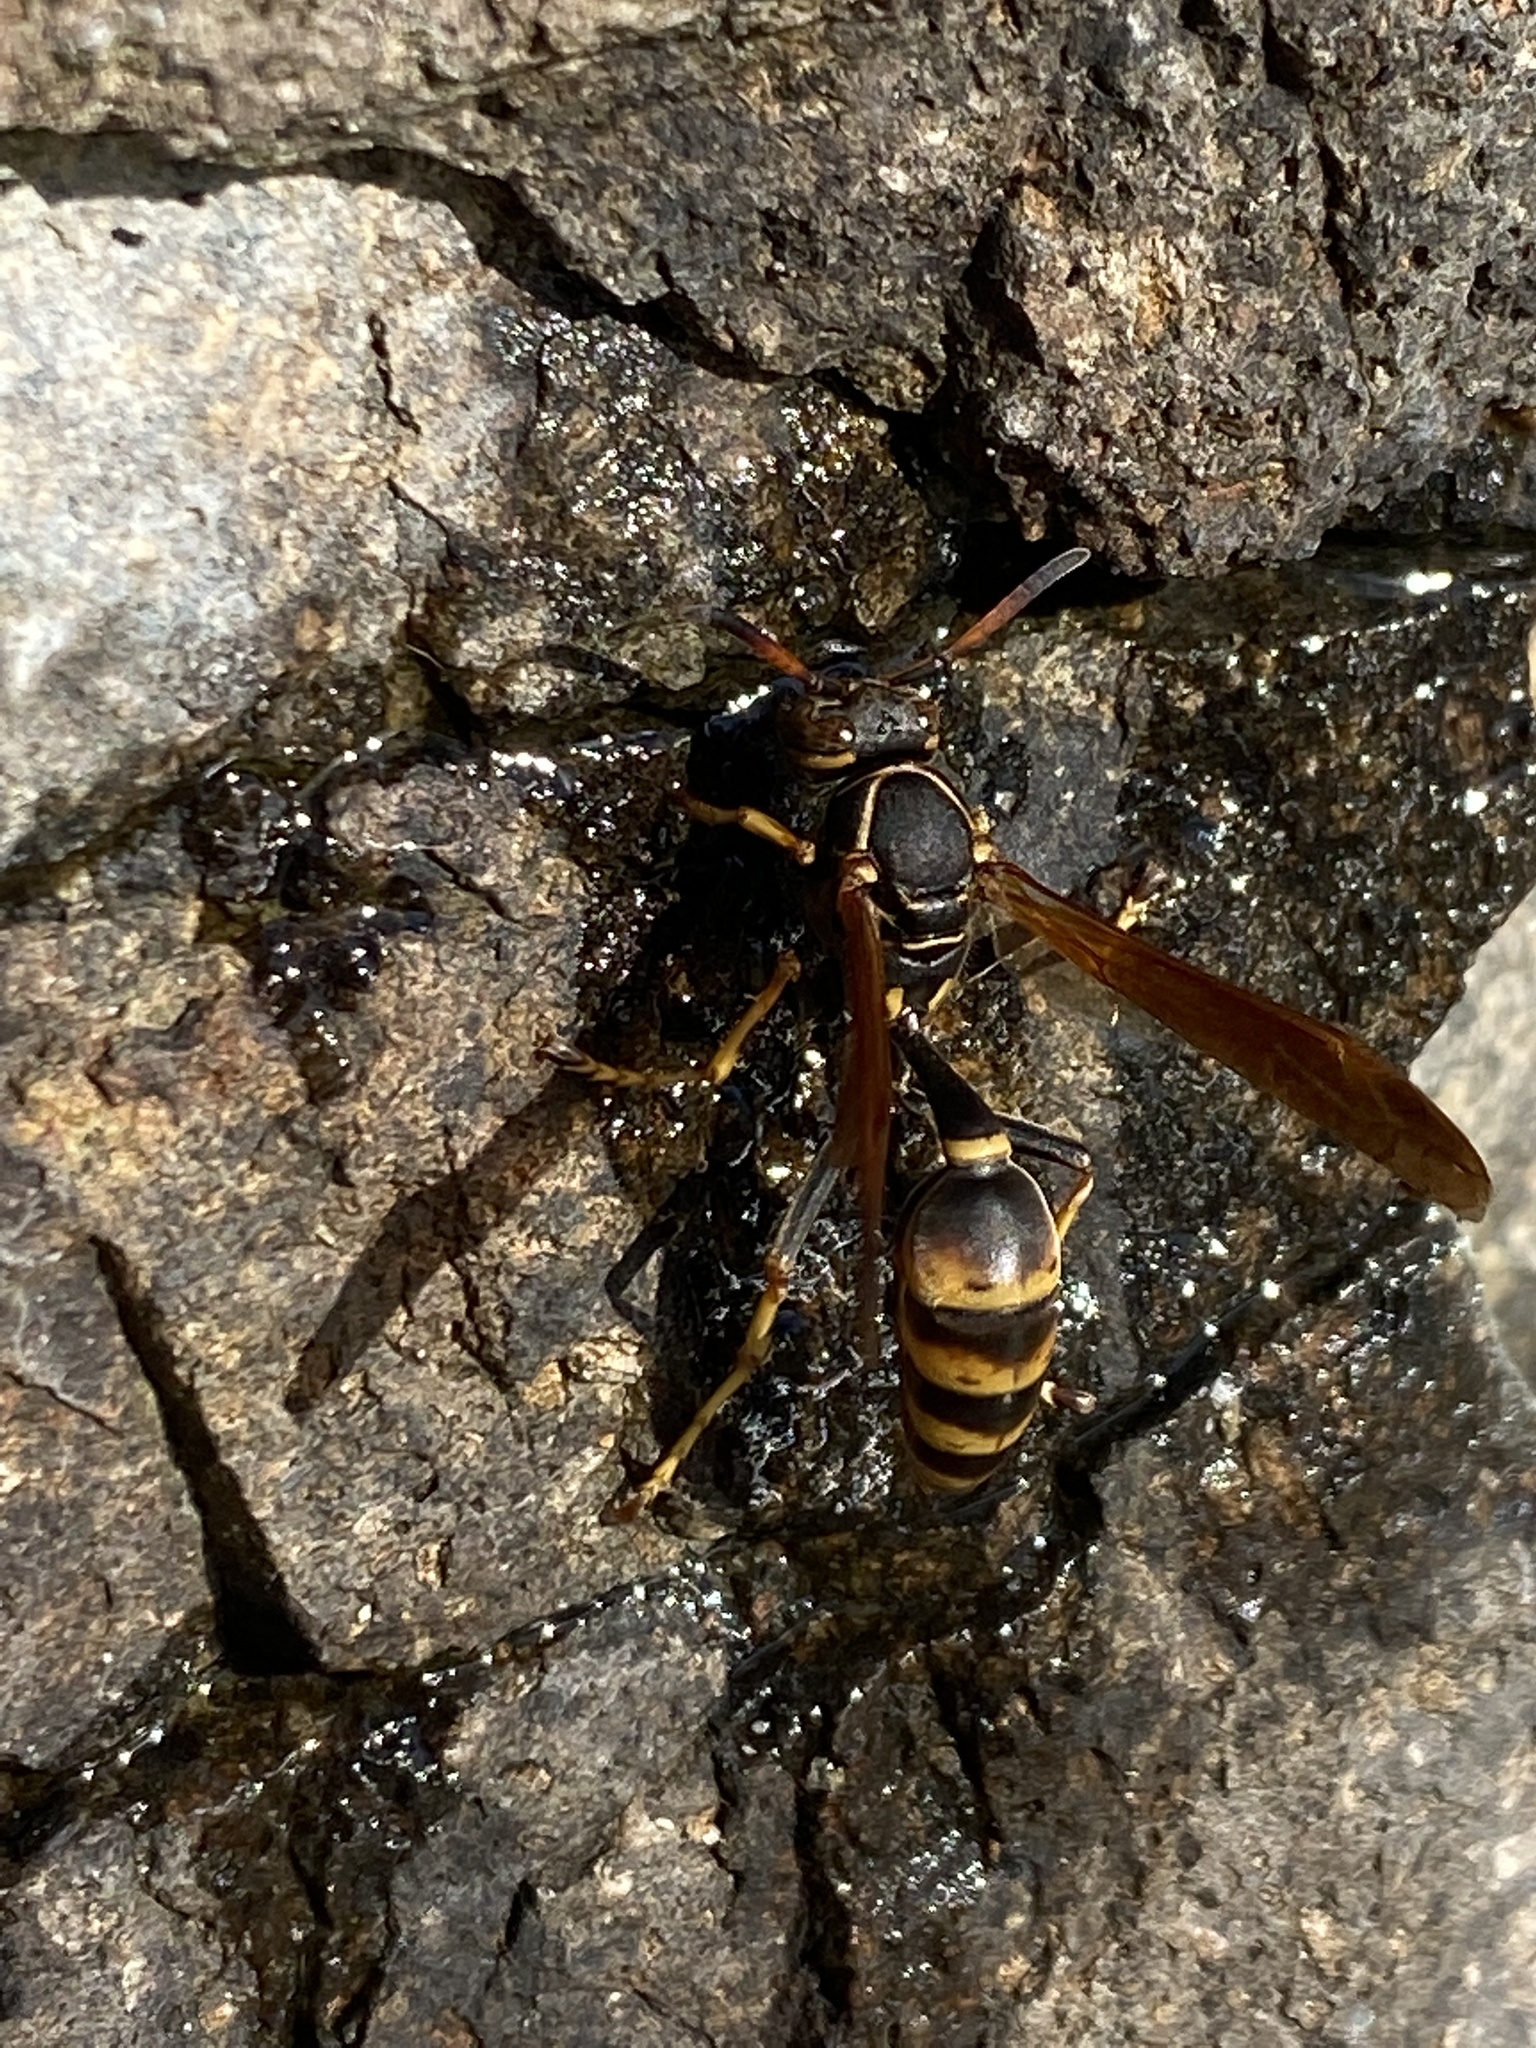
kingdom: Animalia
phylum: Arthropoda
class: Insecta
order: Hymenoptera
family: Vespidae
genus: Mischocyttarus
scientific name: Mischocyttarus flavitarsis
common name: Wasp
